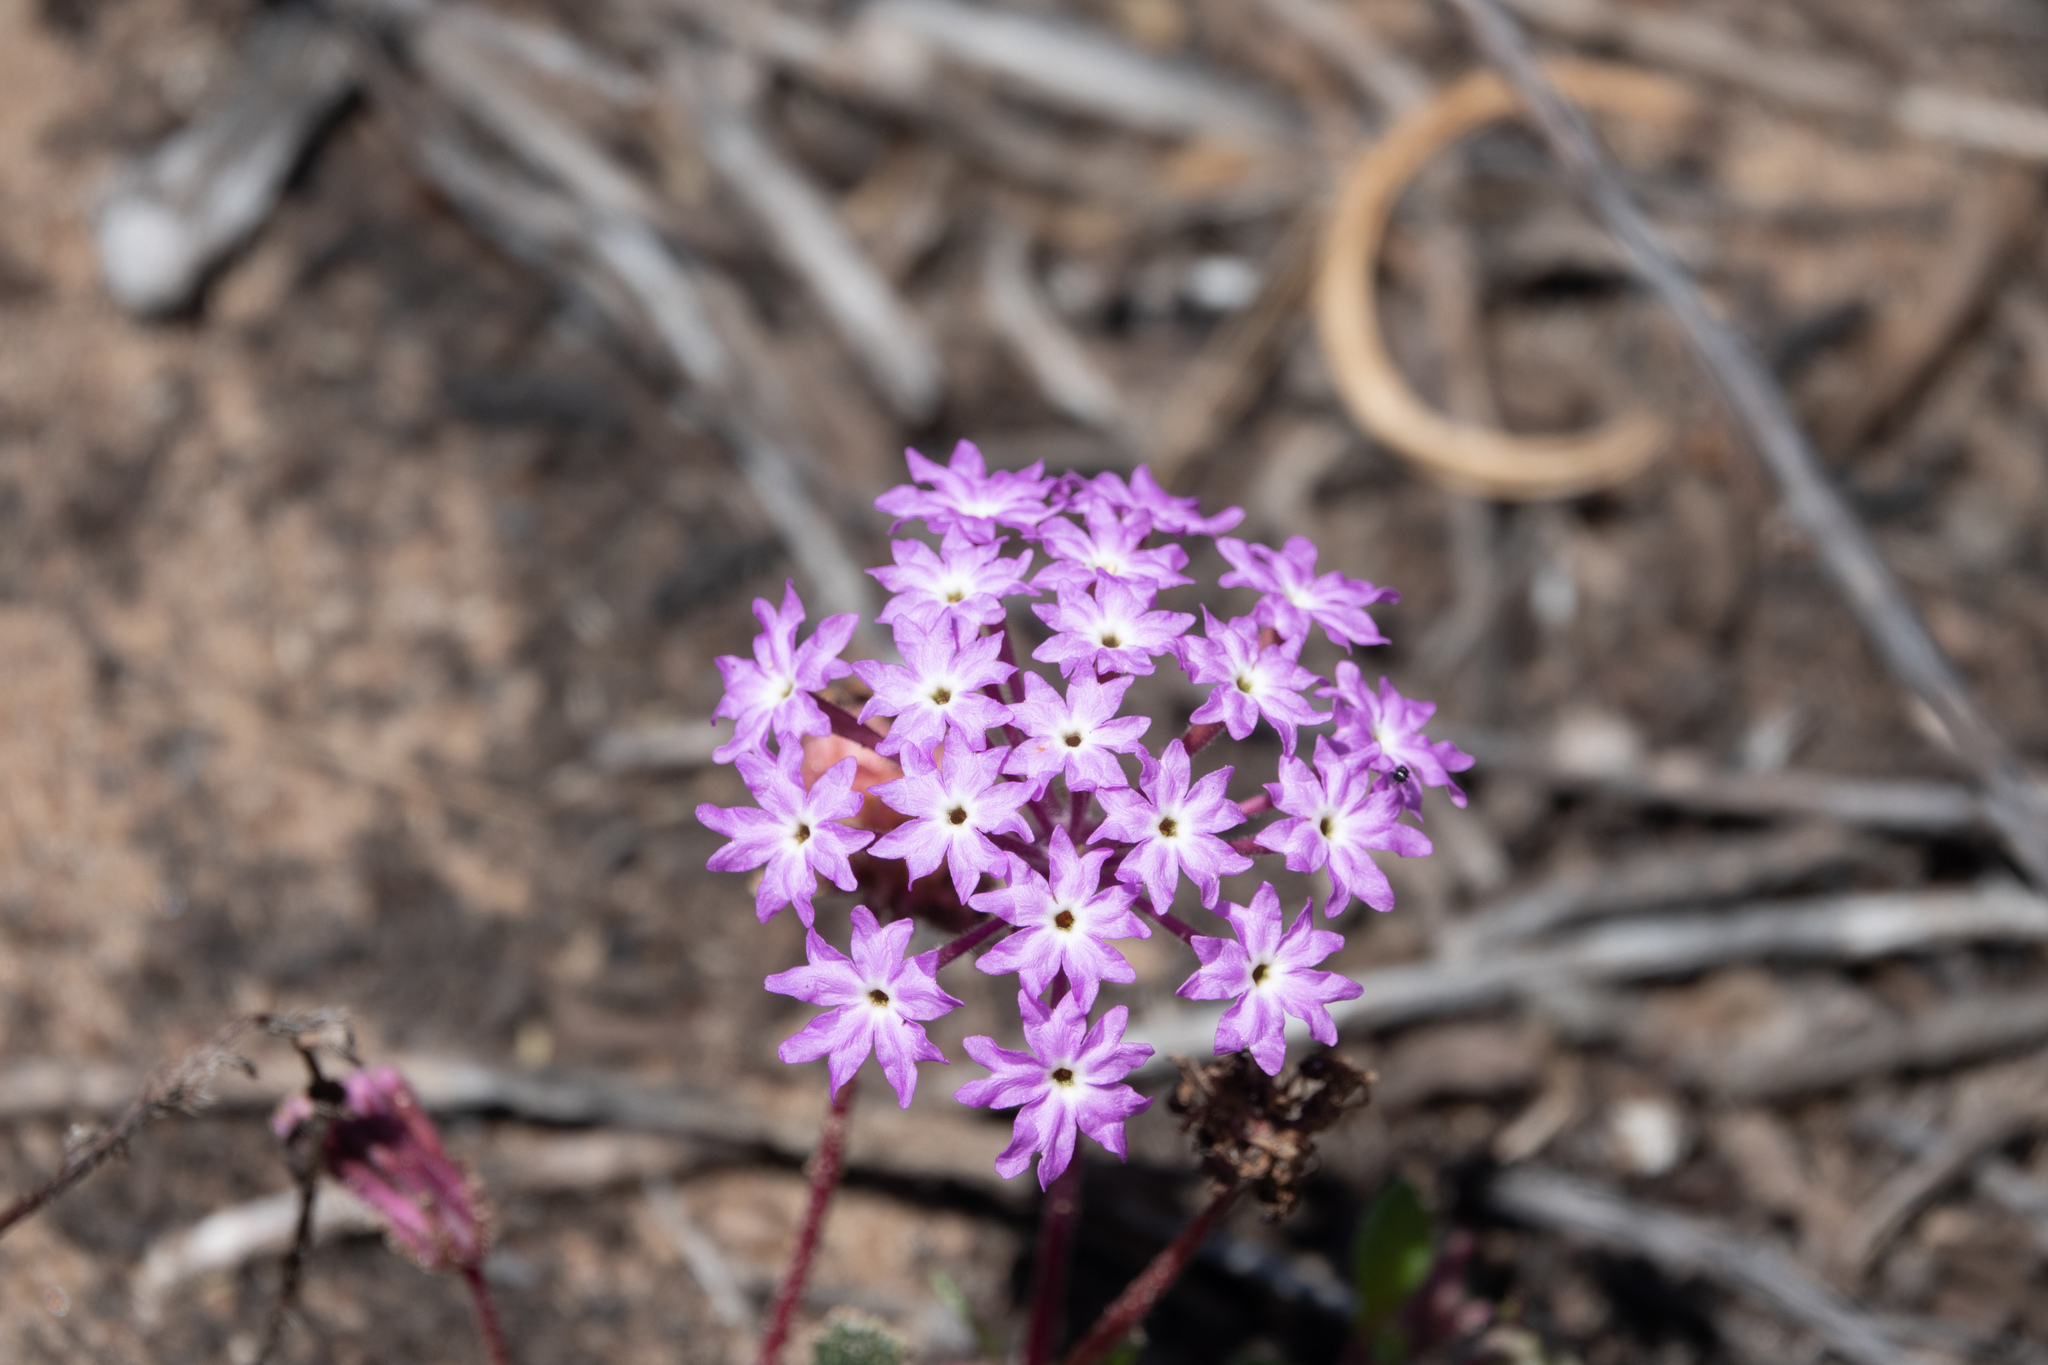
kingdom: Plantae
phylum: Tracheophyta
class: Magnoliopsida
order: Caryophyllales
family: Nyctaginaceae
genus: Abronia
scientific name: Abronia umbellata
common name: Sand-verbena
